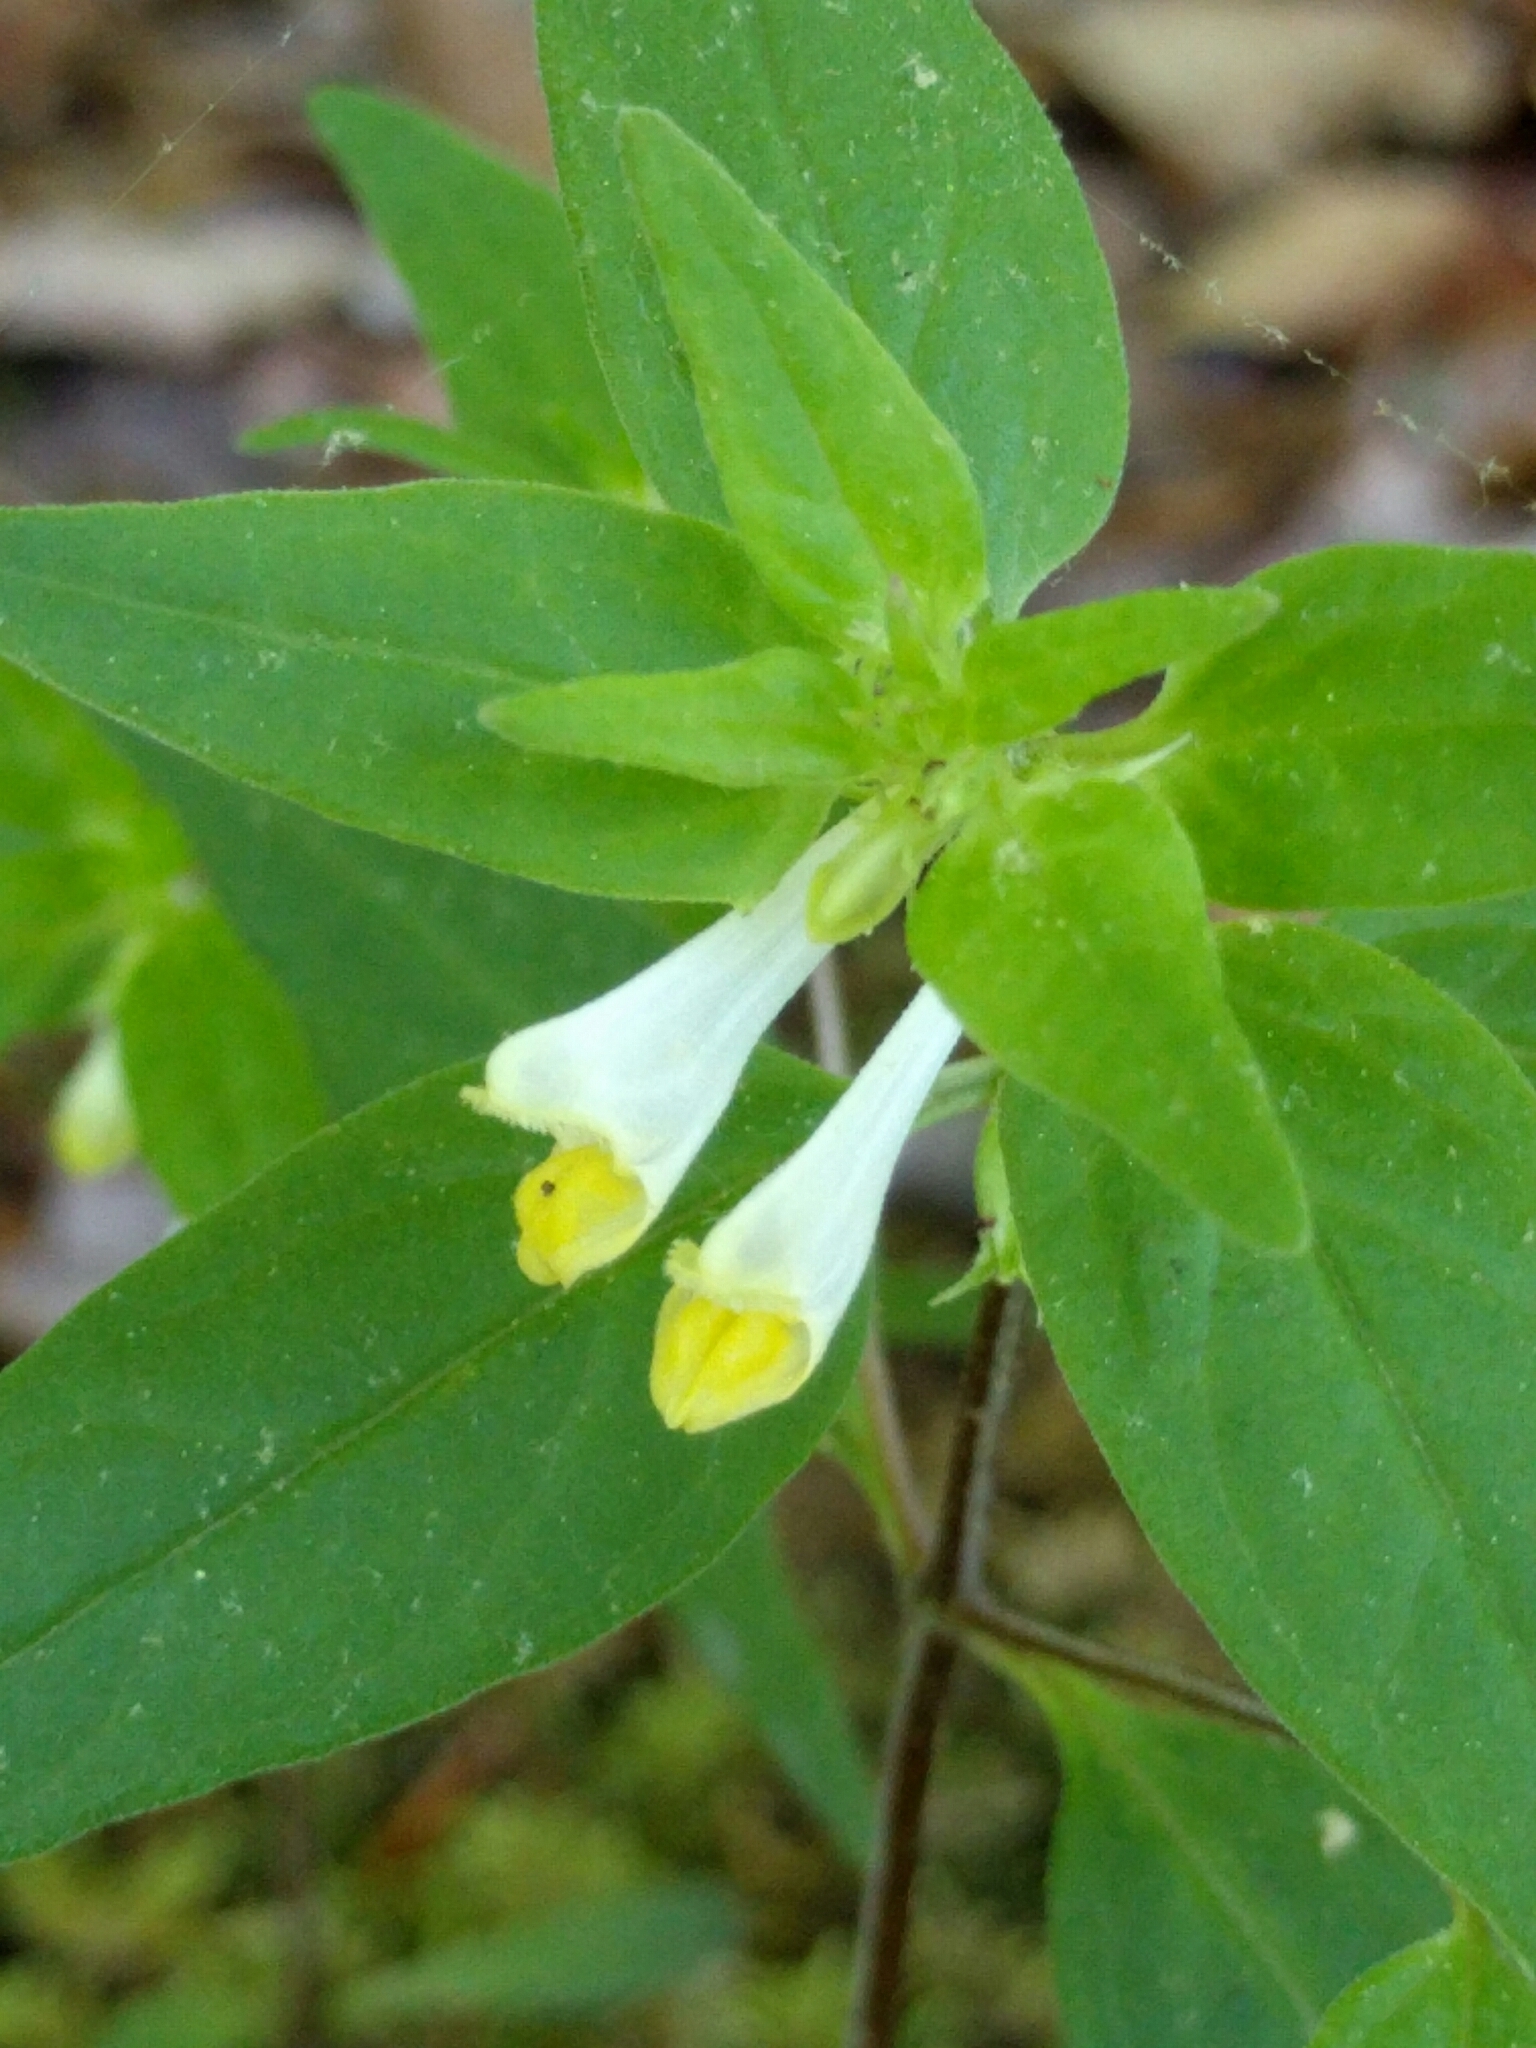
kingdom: Plantae
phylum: Tracheophyta
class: Magnoliopsida
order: Lamiales
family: Orobanchaceae
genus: Melampyrum
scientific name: Melampyrum lineare
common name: American cow-wheat
